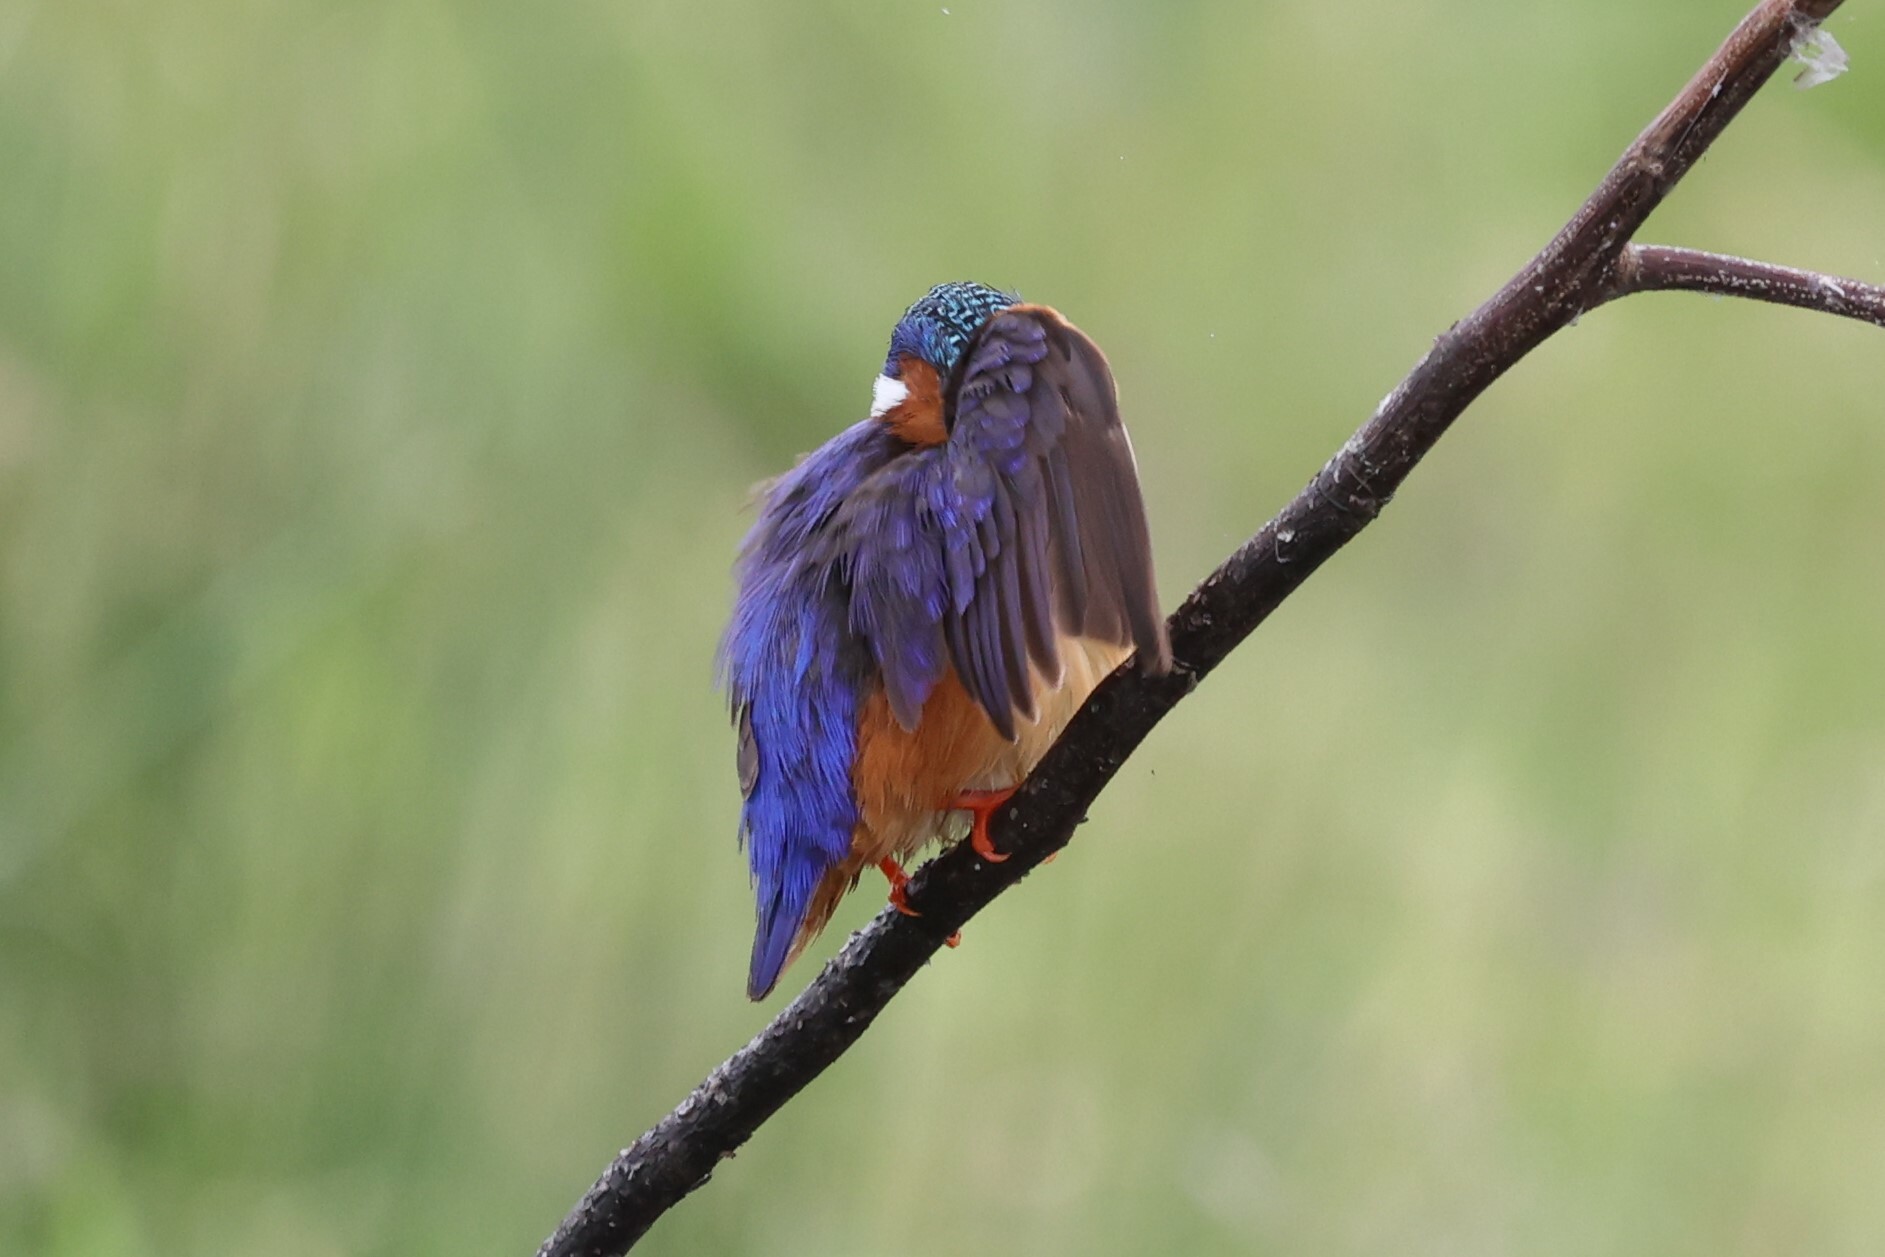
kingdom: Animalia
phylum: Chordata
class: Aves
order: Coraciiformes
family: Alcedinidae
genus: Corythornis
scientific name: Corythornis cristatus
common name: Malachite kingfisher
